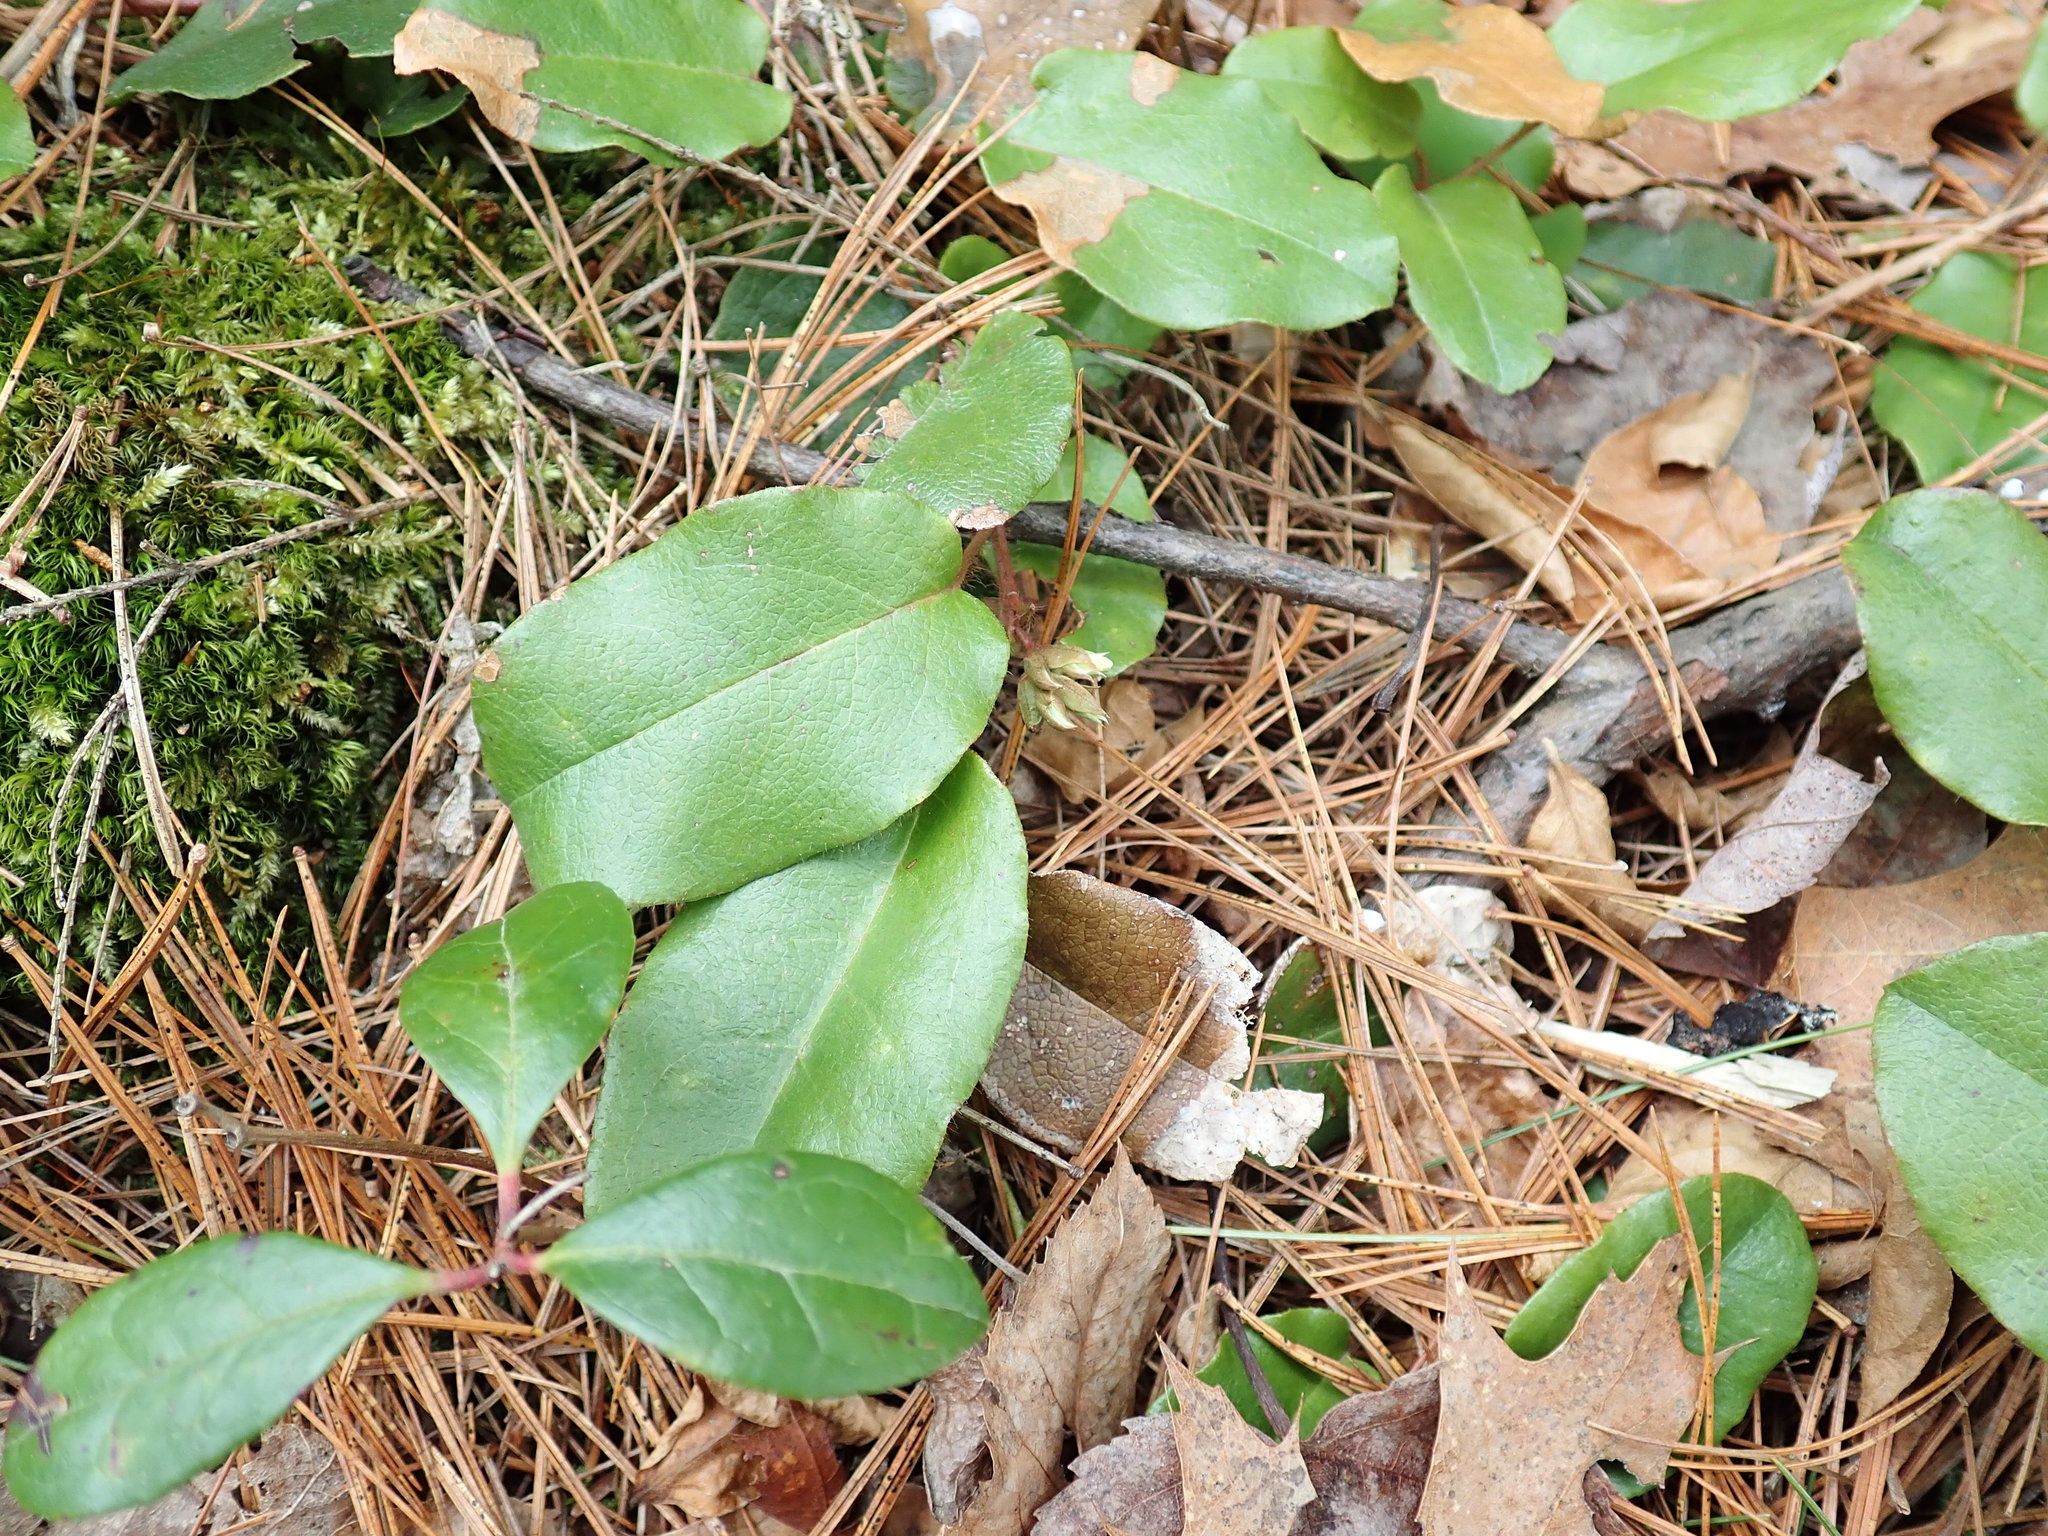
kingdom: Plantae
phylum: Tracheophyta
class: Magnoliopsida
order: Ericales
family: Ericaceae
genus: Epigaea
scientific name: Epigaea repens
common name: Gravelroot
